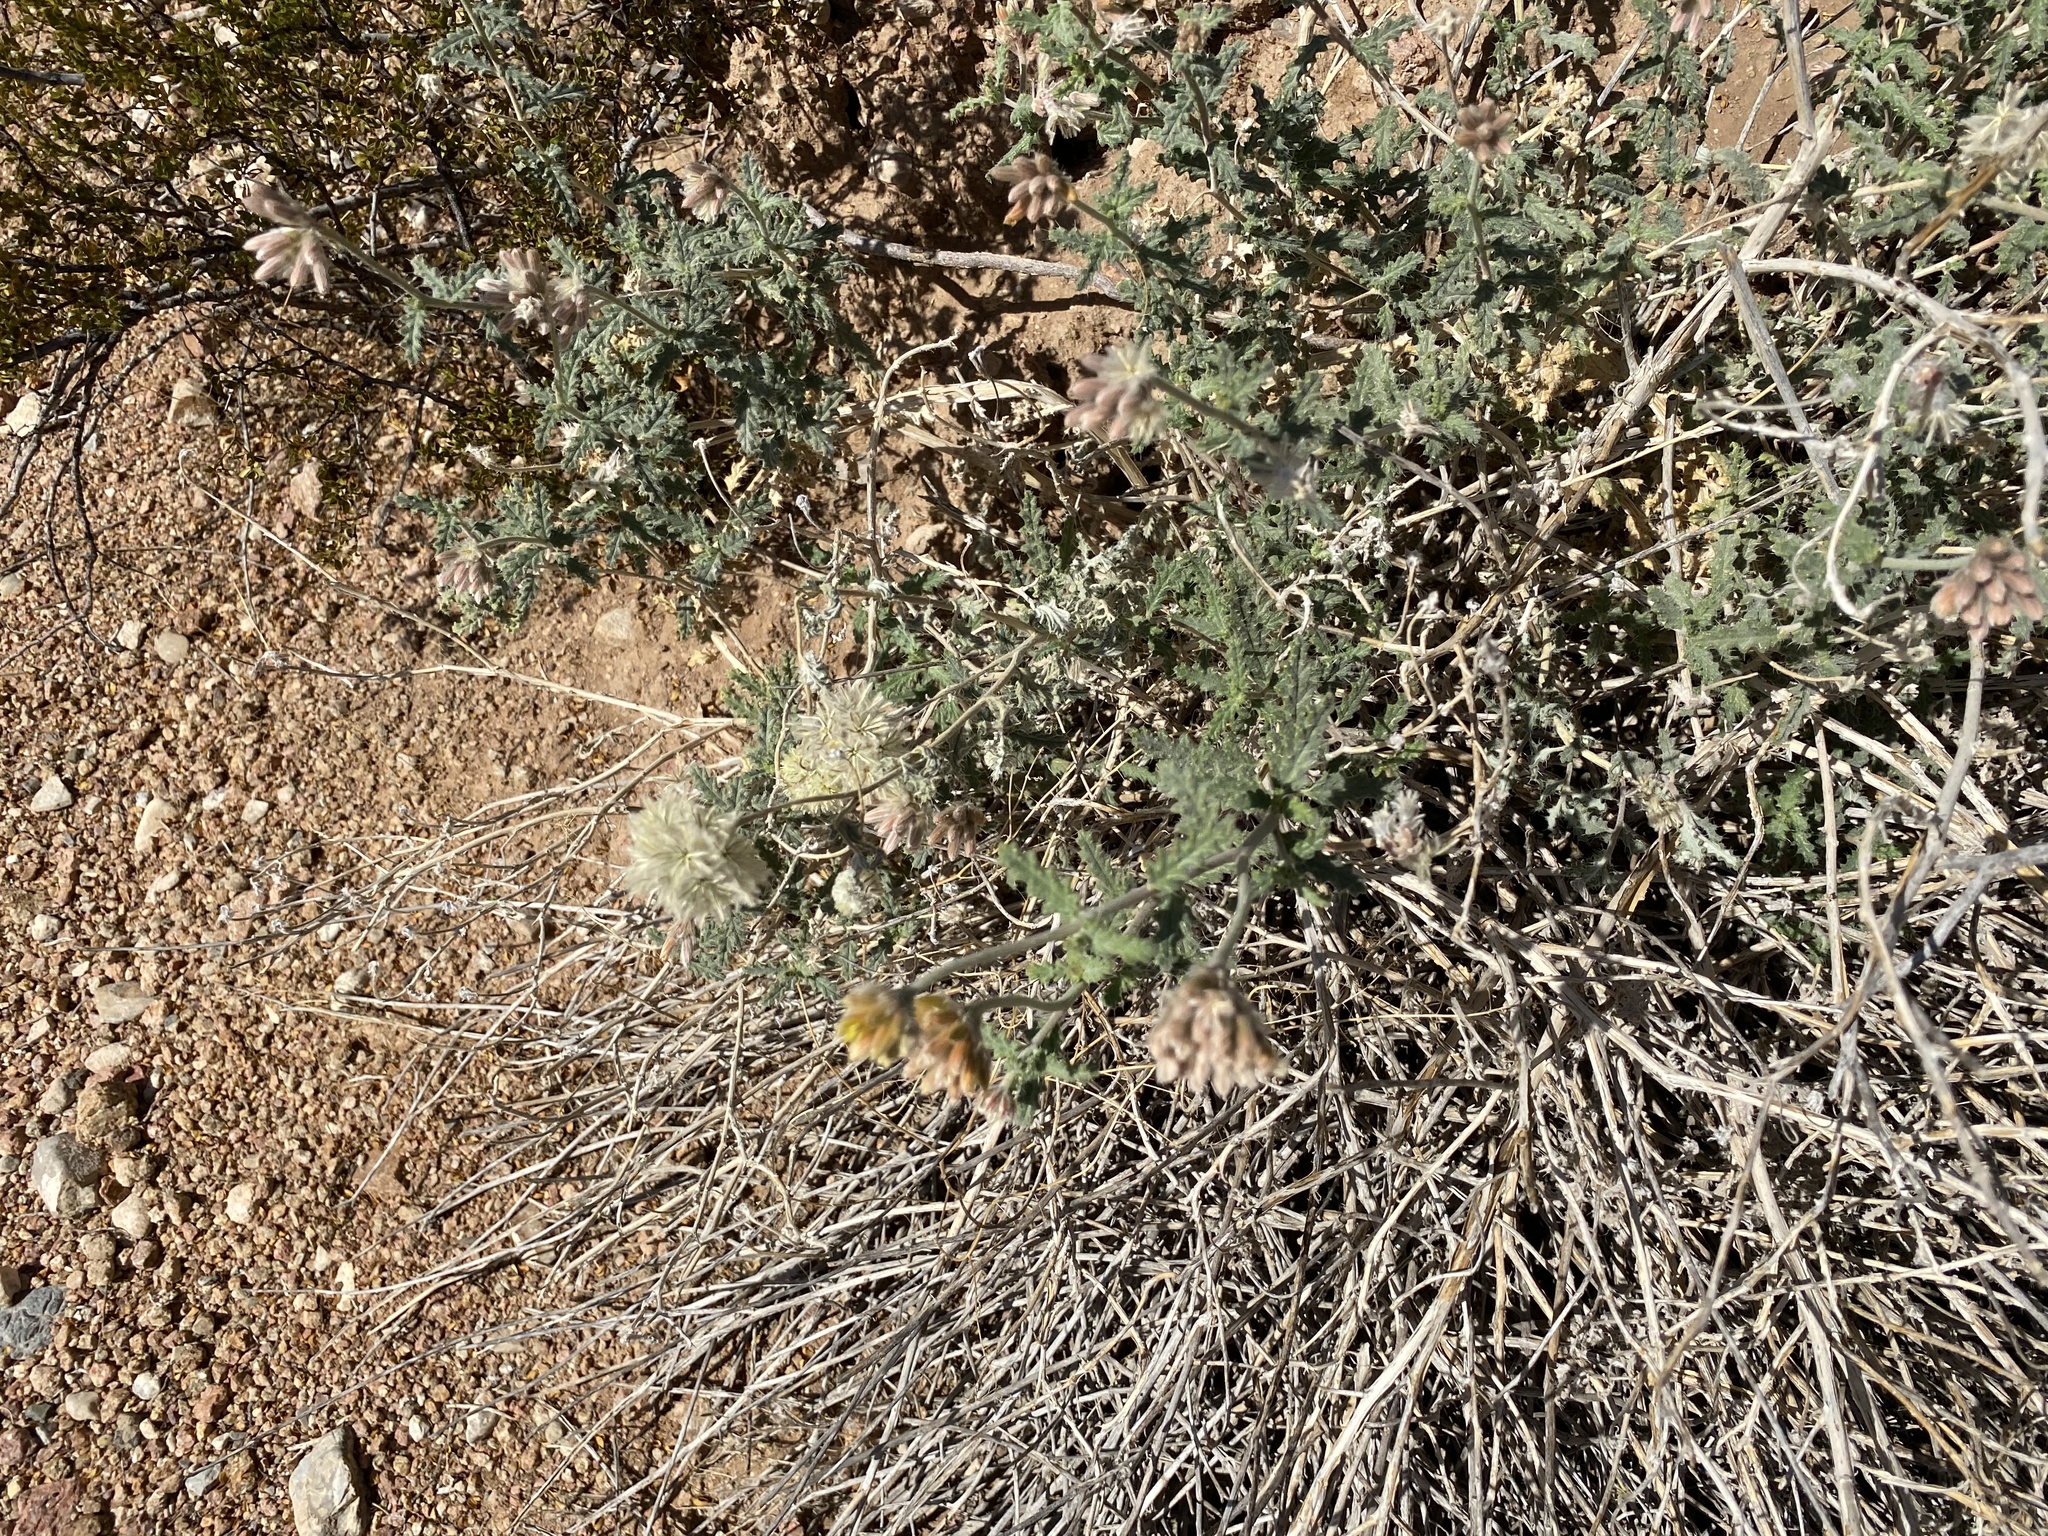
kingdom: Plantae
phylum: Tracheophyta
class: Magnoliopsida
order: Cornales
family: Loasaceae
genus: Cevallia
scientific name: Cevallia sinuata
